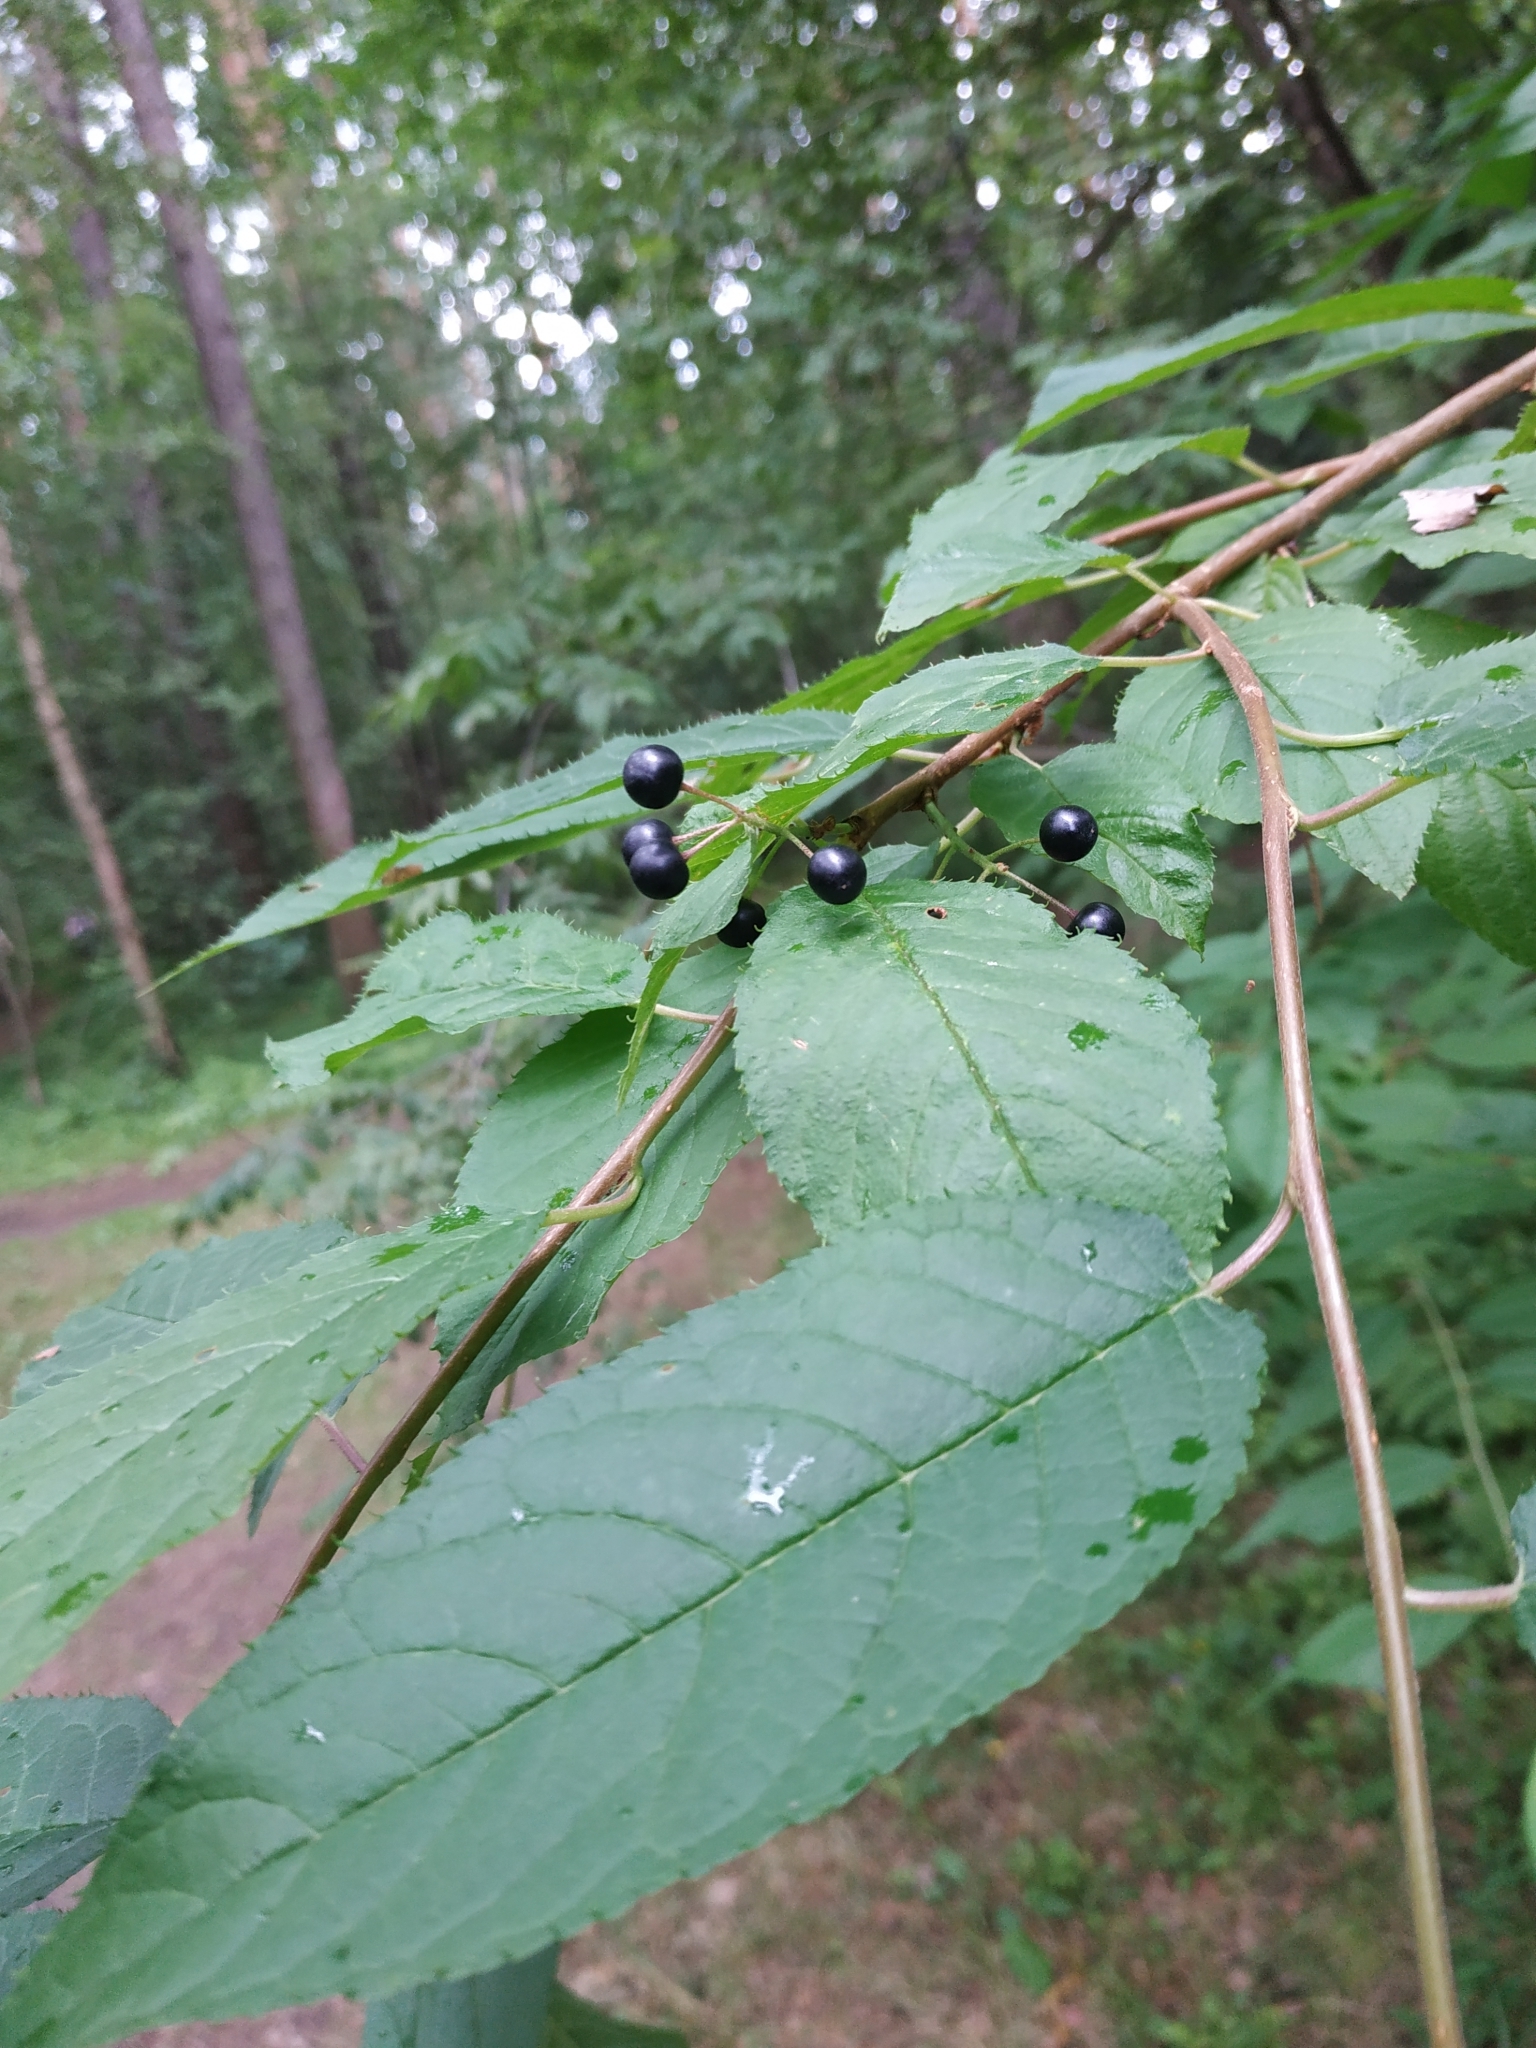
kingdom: Plantae
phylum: Tracheophyta
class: Magnoliopsida
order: Rosales
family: Rosaceae
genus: Prunus
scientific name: Prunus padus
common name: Bird cherry
